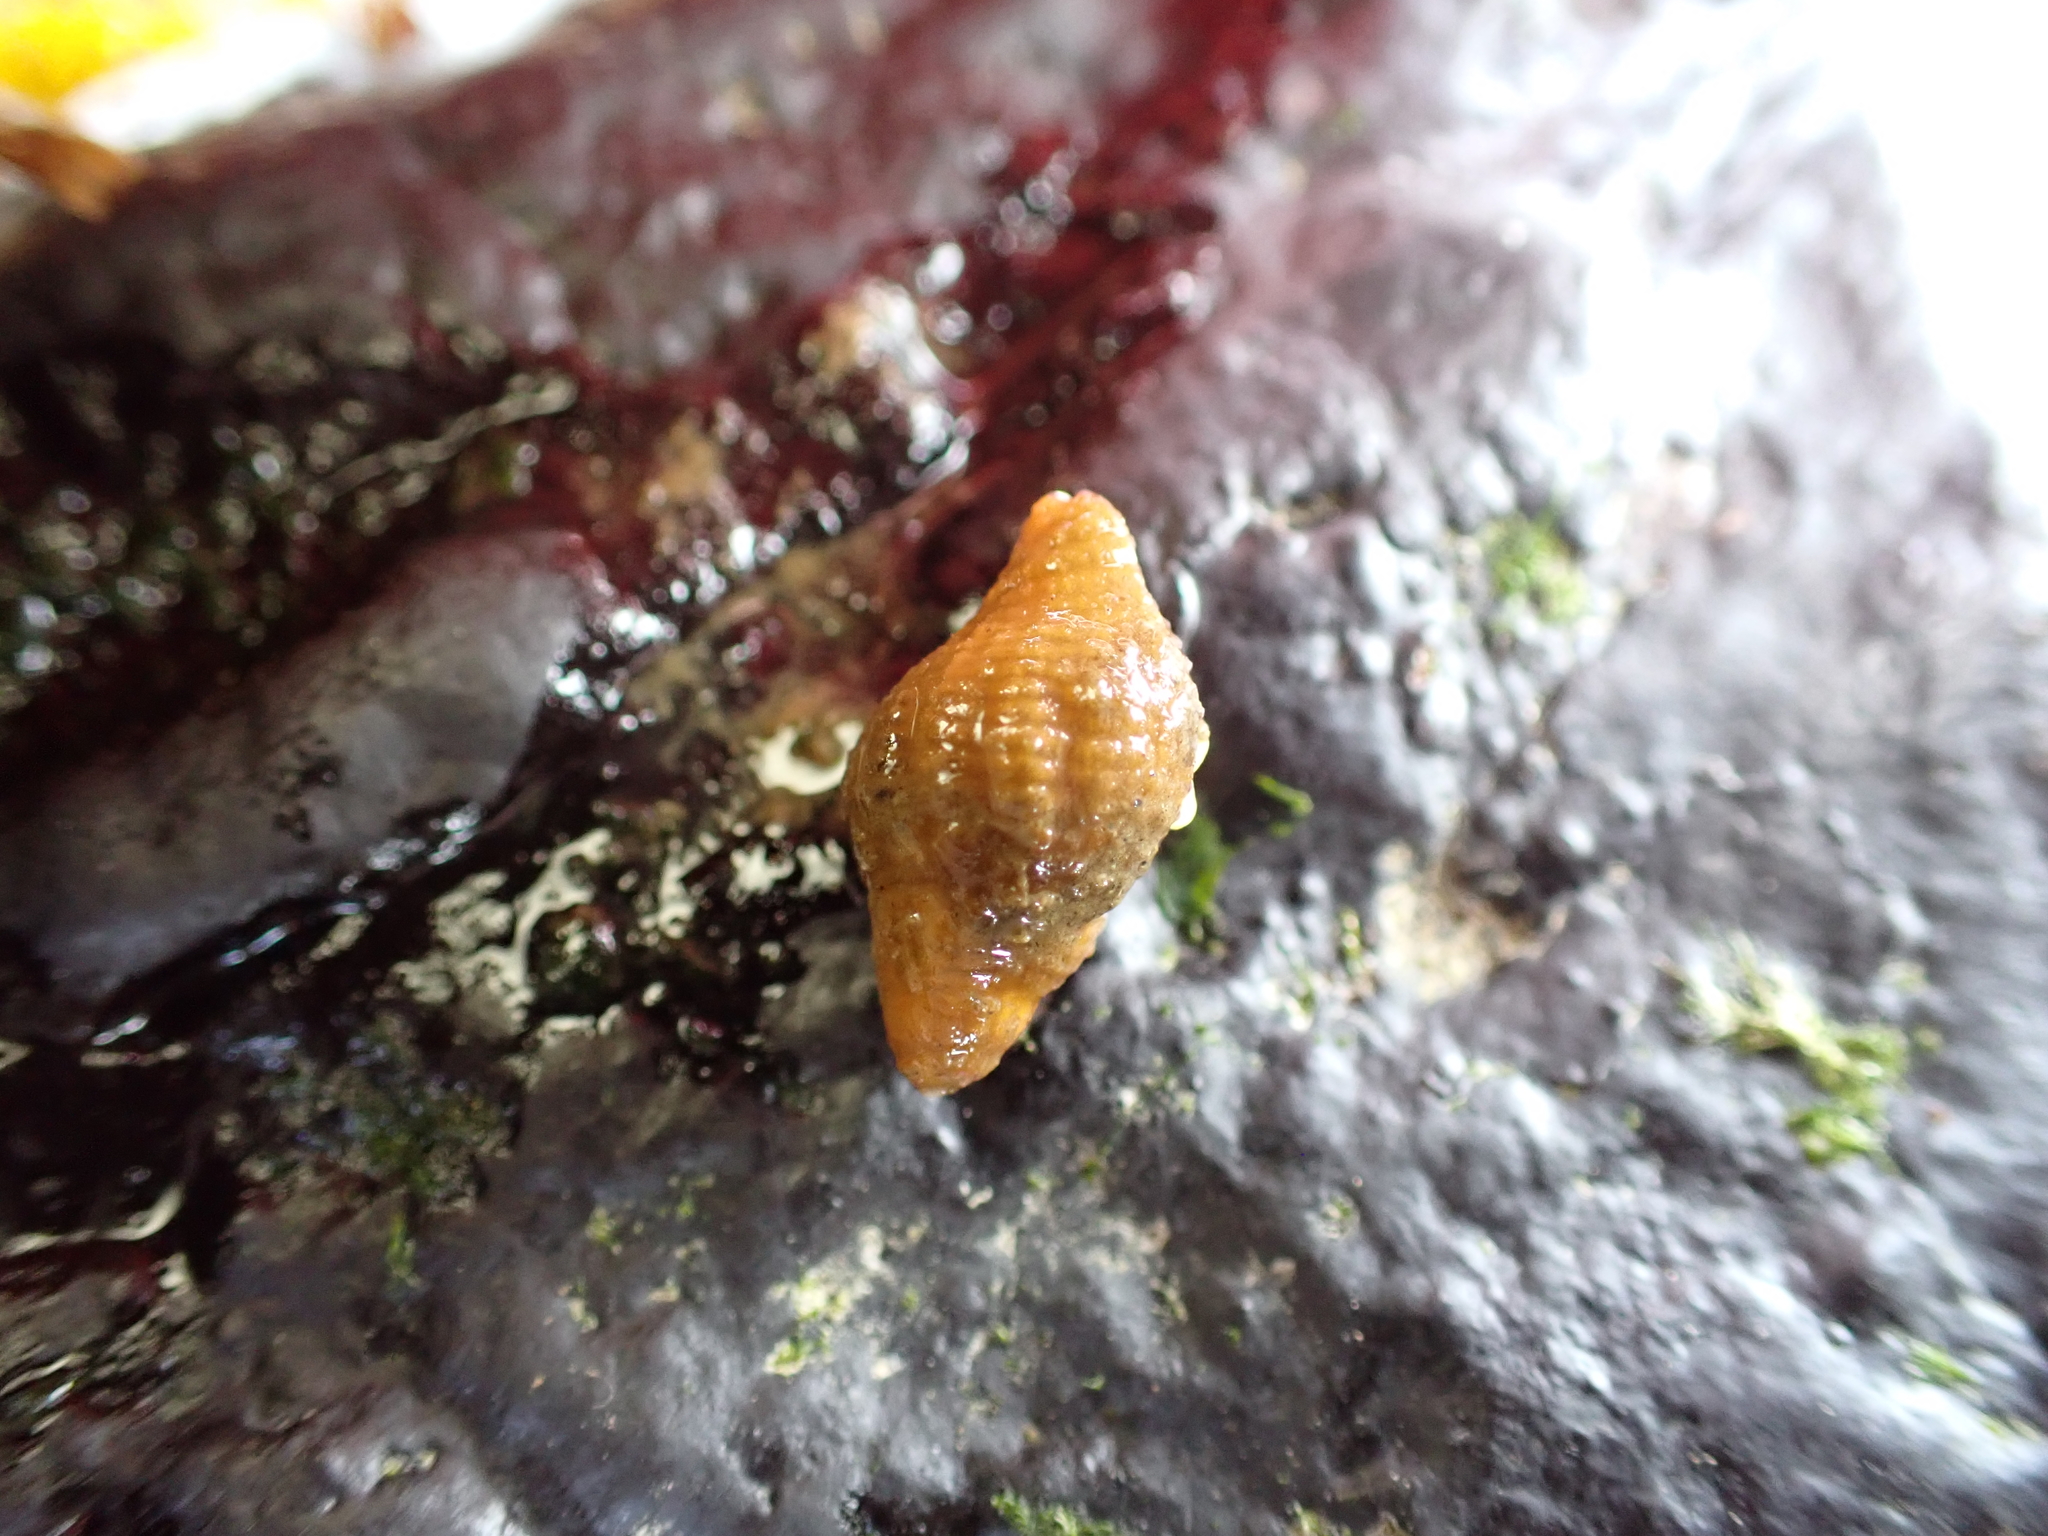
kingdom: Animalia
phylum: Mollusca
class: Gastropoda
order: Neogastropoda
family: Muricidae
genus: Paciocinebrina
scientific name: Paciocinebrina lurida
